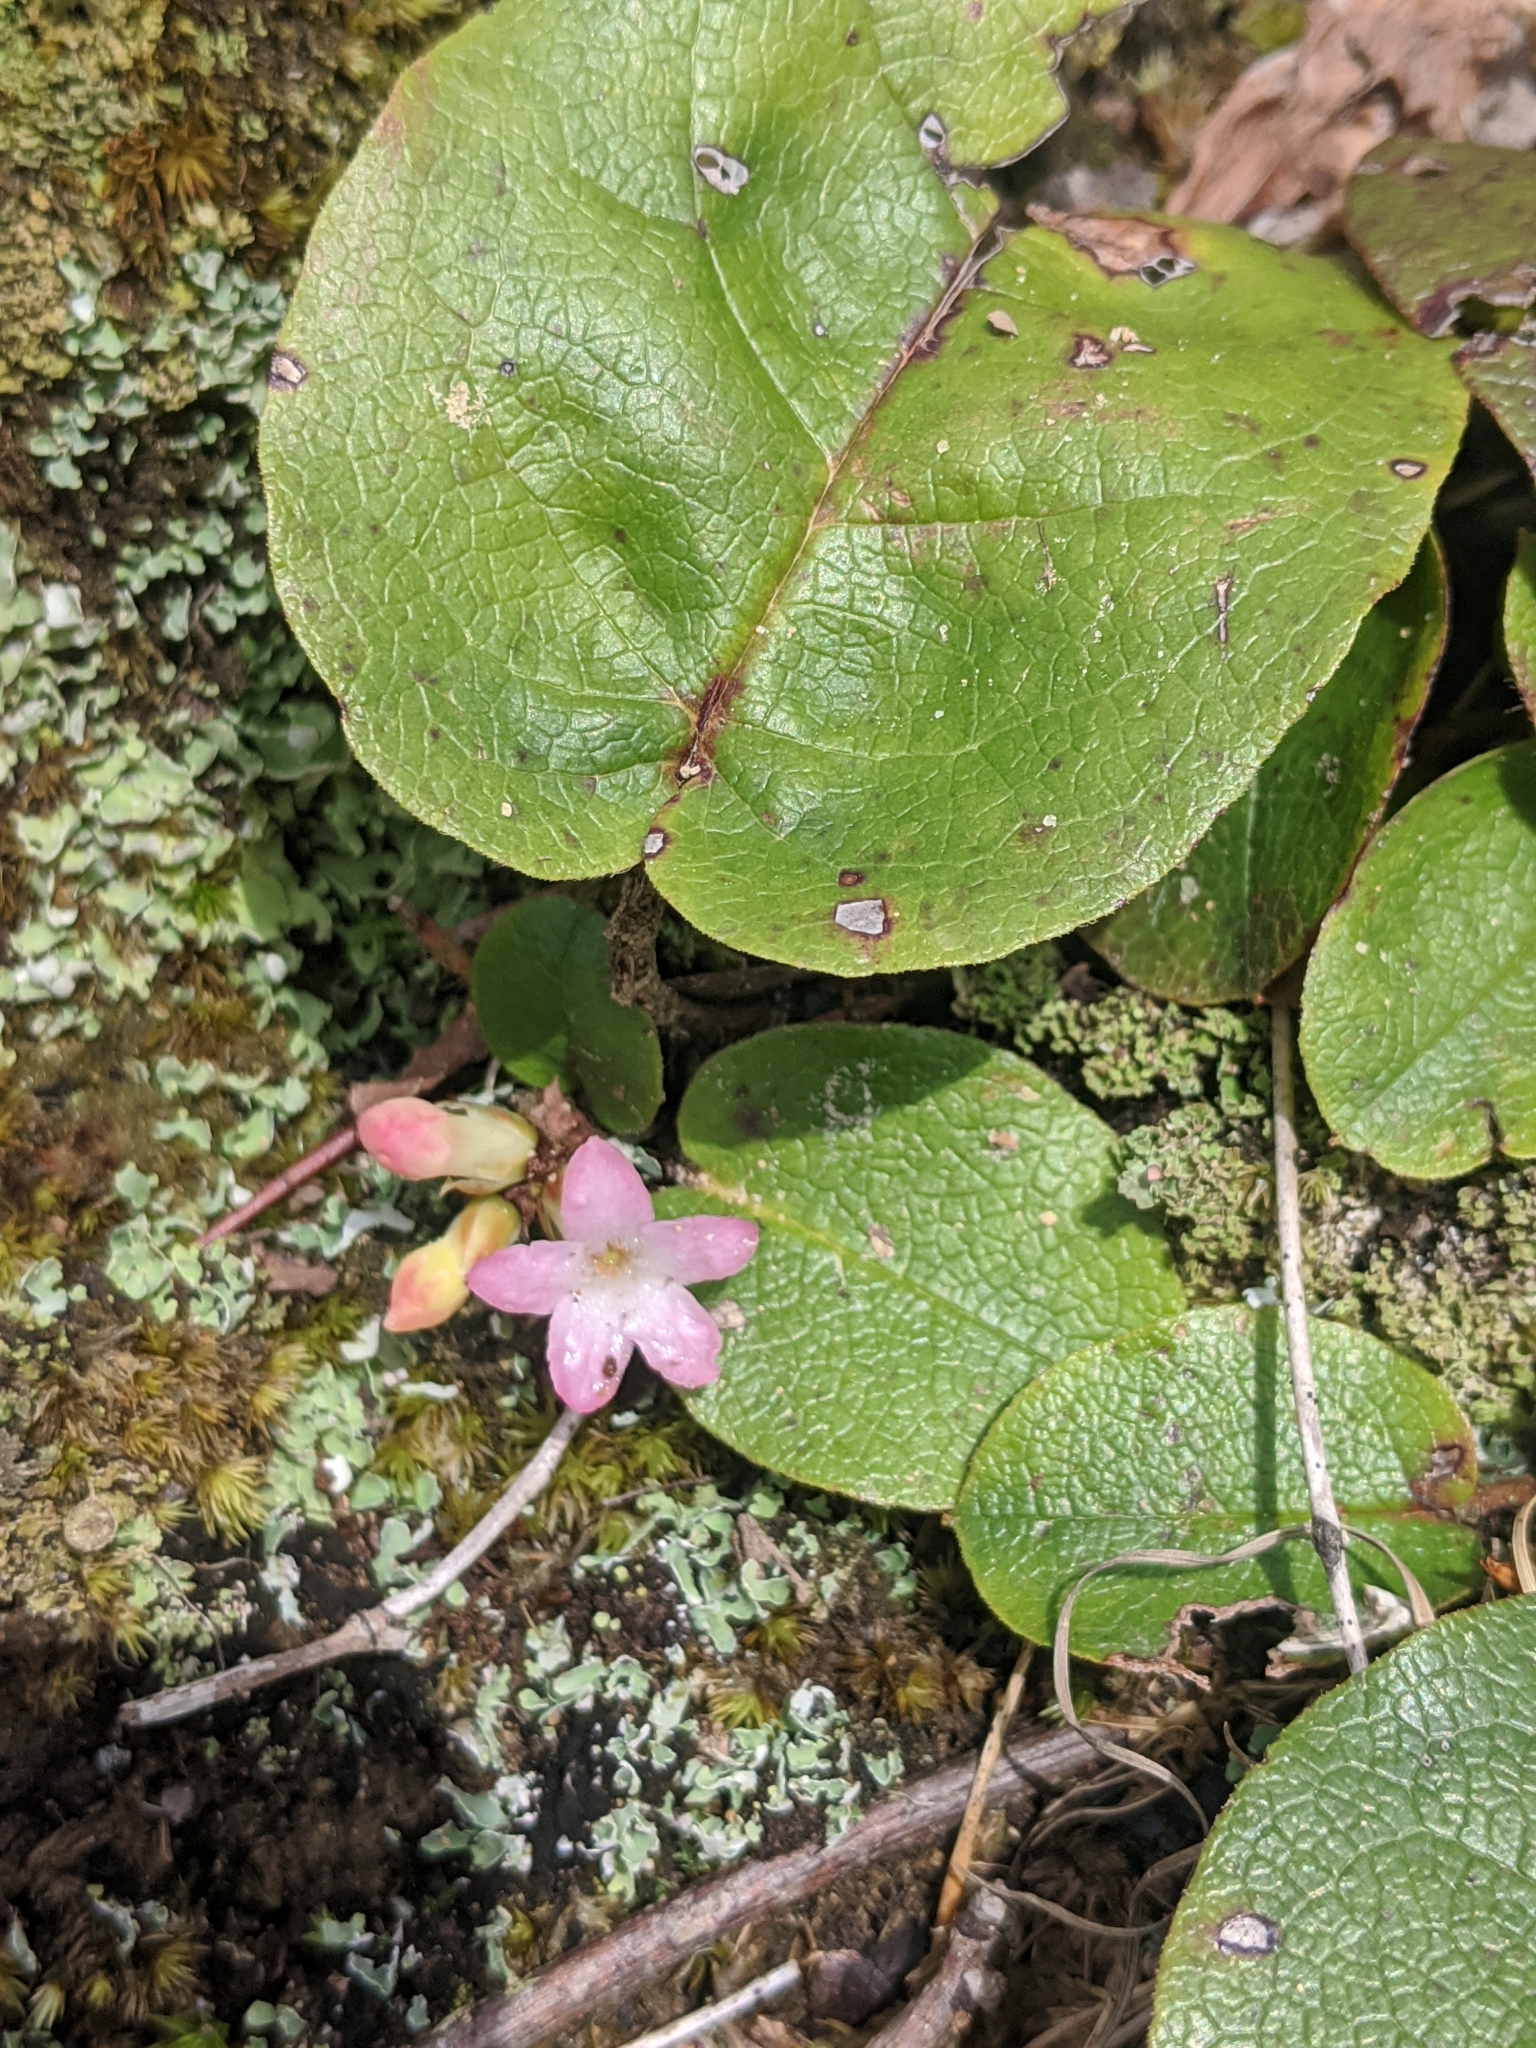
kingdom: Plantae
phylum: Tracheophyta
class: Magnoliopsida
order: Ericales
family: Ericaceae
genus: Epigaea
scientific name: Epigaea repens
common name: Gravelroot
